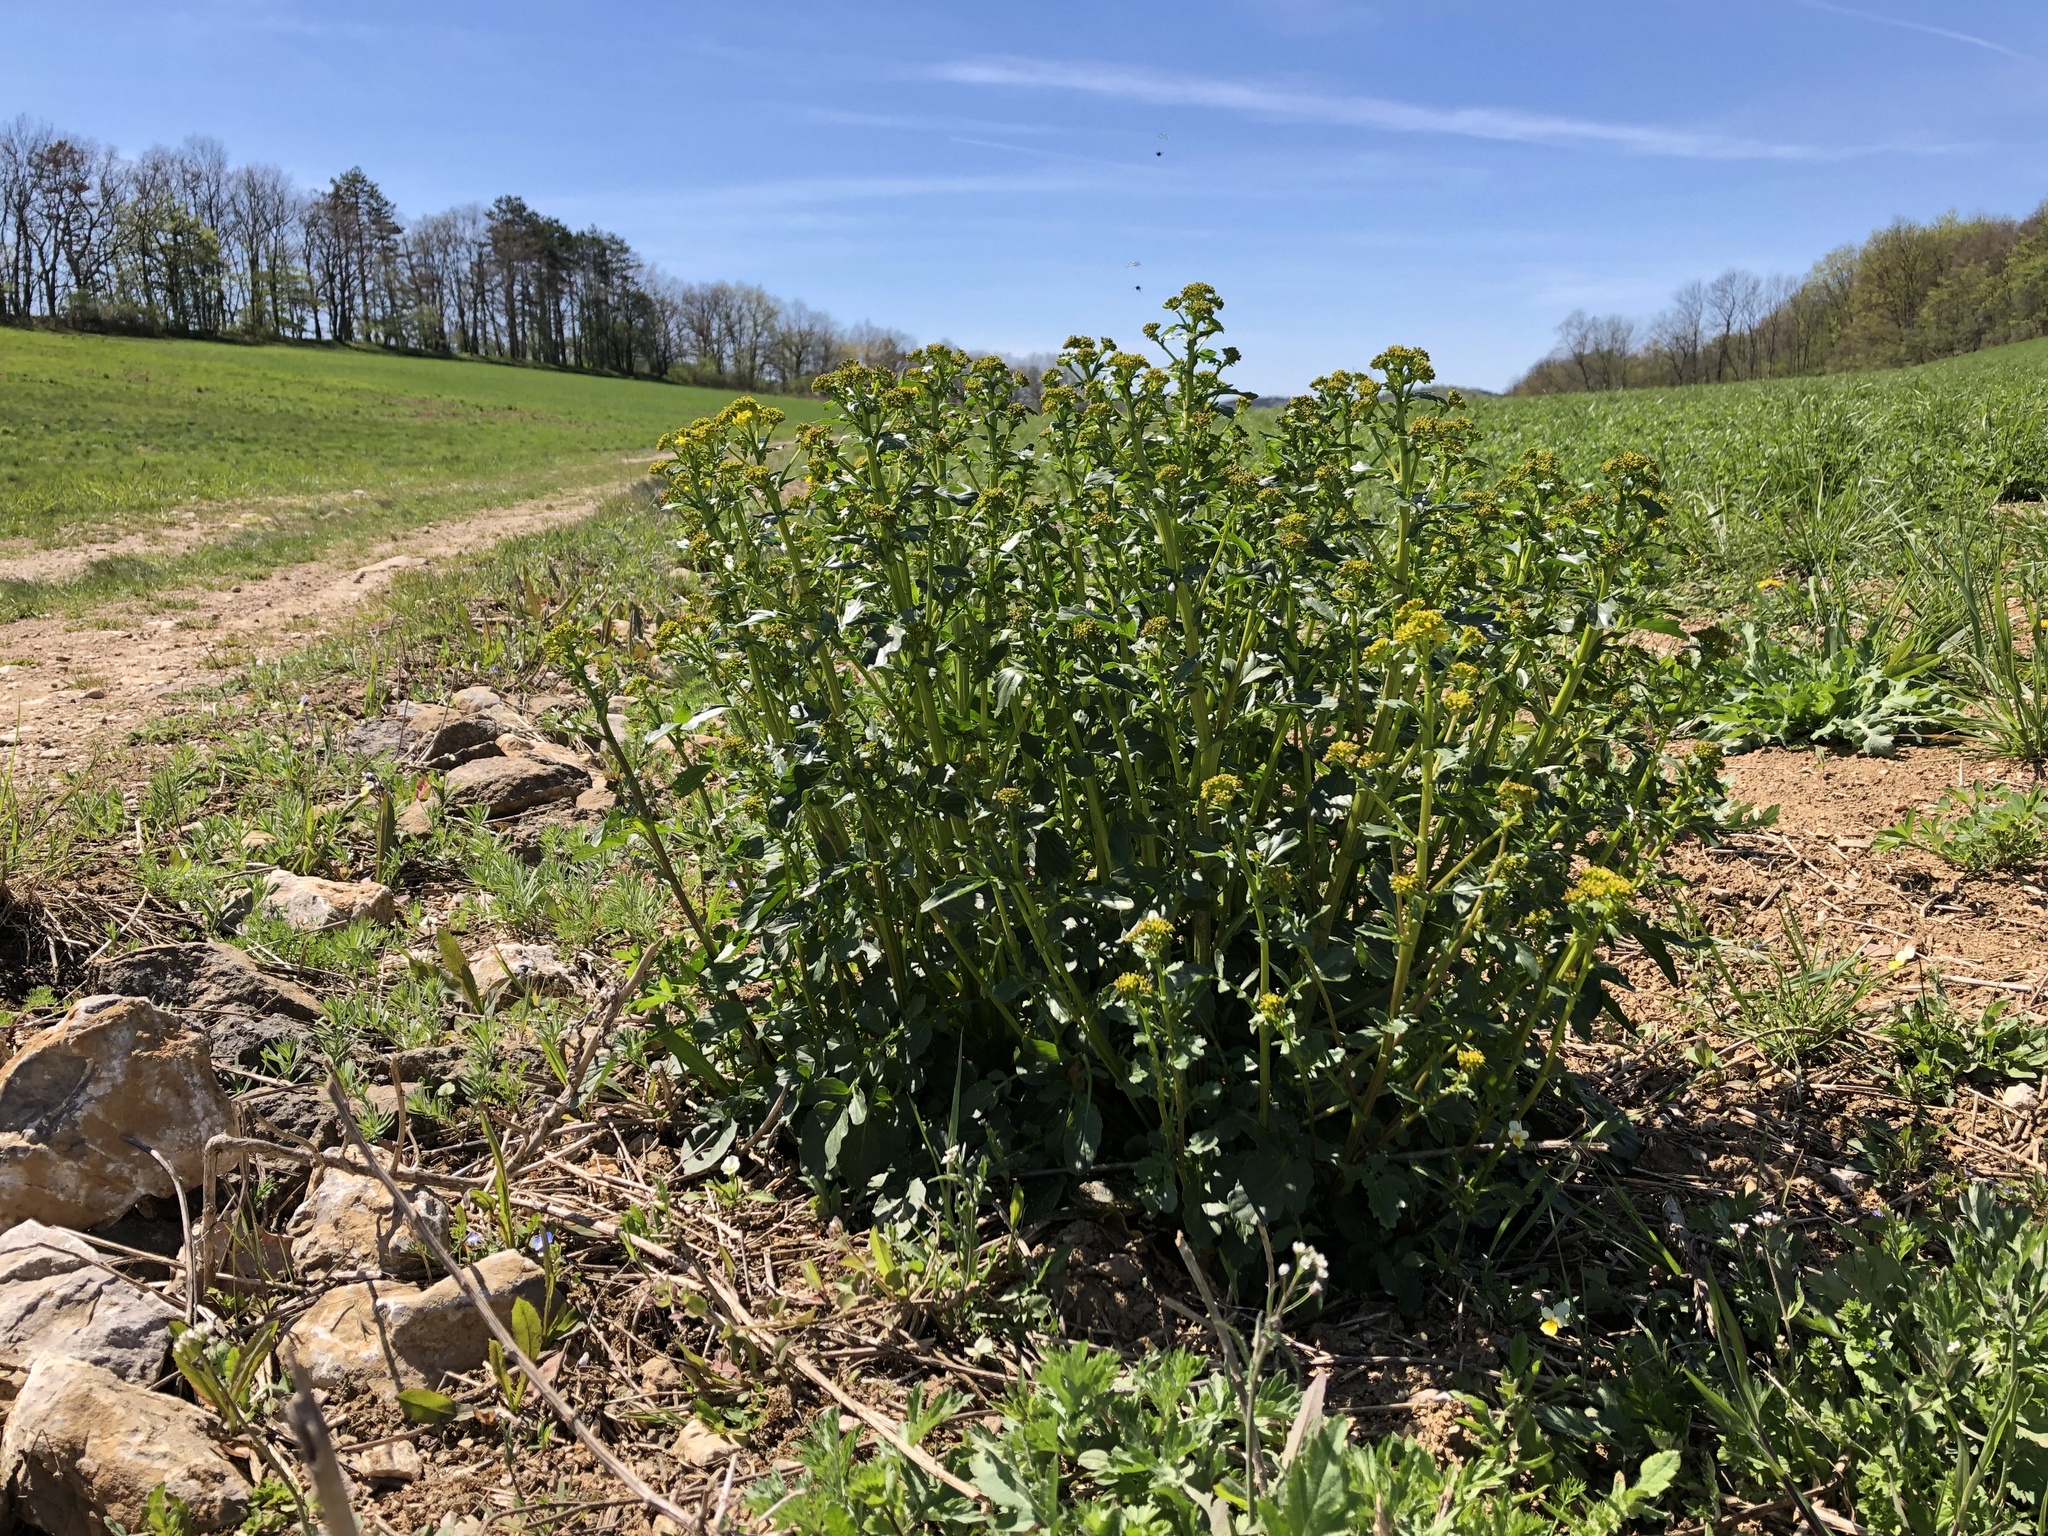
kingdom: Plantae
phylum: Tracheophyta
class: Magnoliopsida
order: Brassicales
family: Brassicaceae
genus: Barbarea
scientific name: Barbarea vulgaris
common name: Cressy-greens
